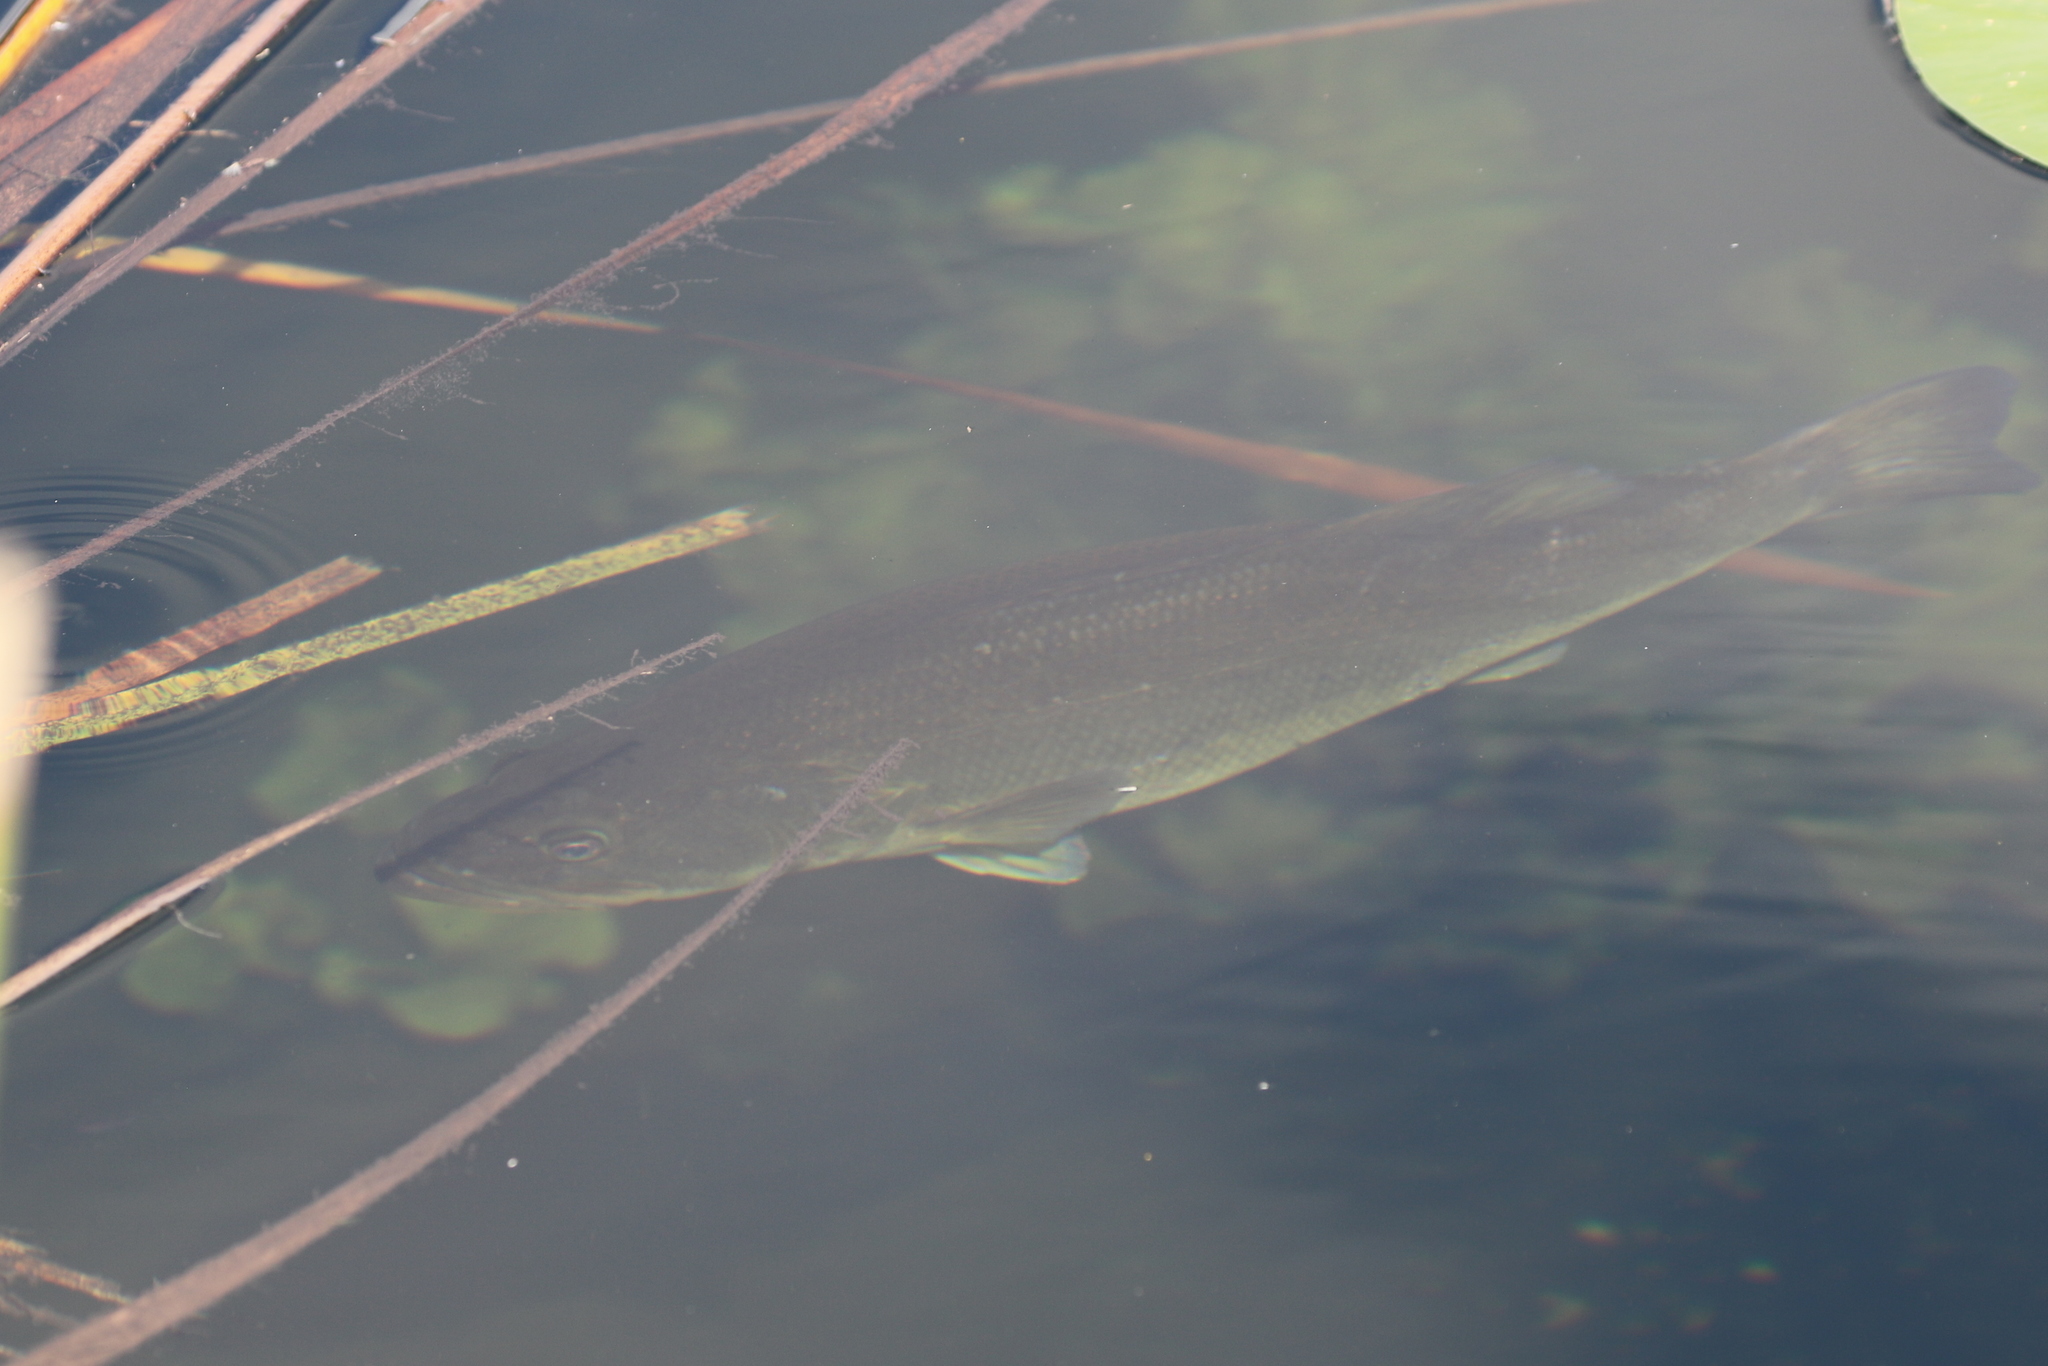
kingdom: Animalia
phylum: Chordata
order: Perciformes
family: Centrarchidae
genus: Micropterus
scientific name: Micropterus salmoides
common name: Largemouth bass
